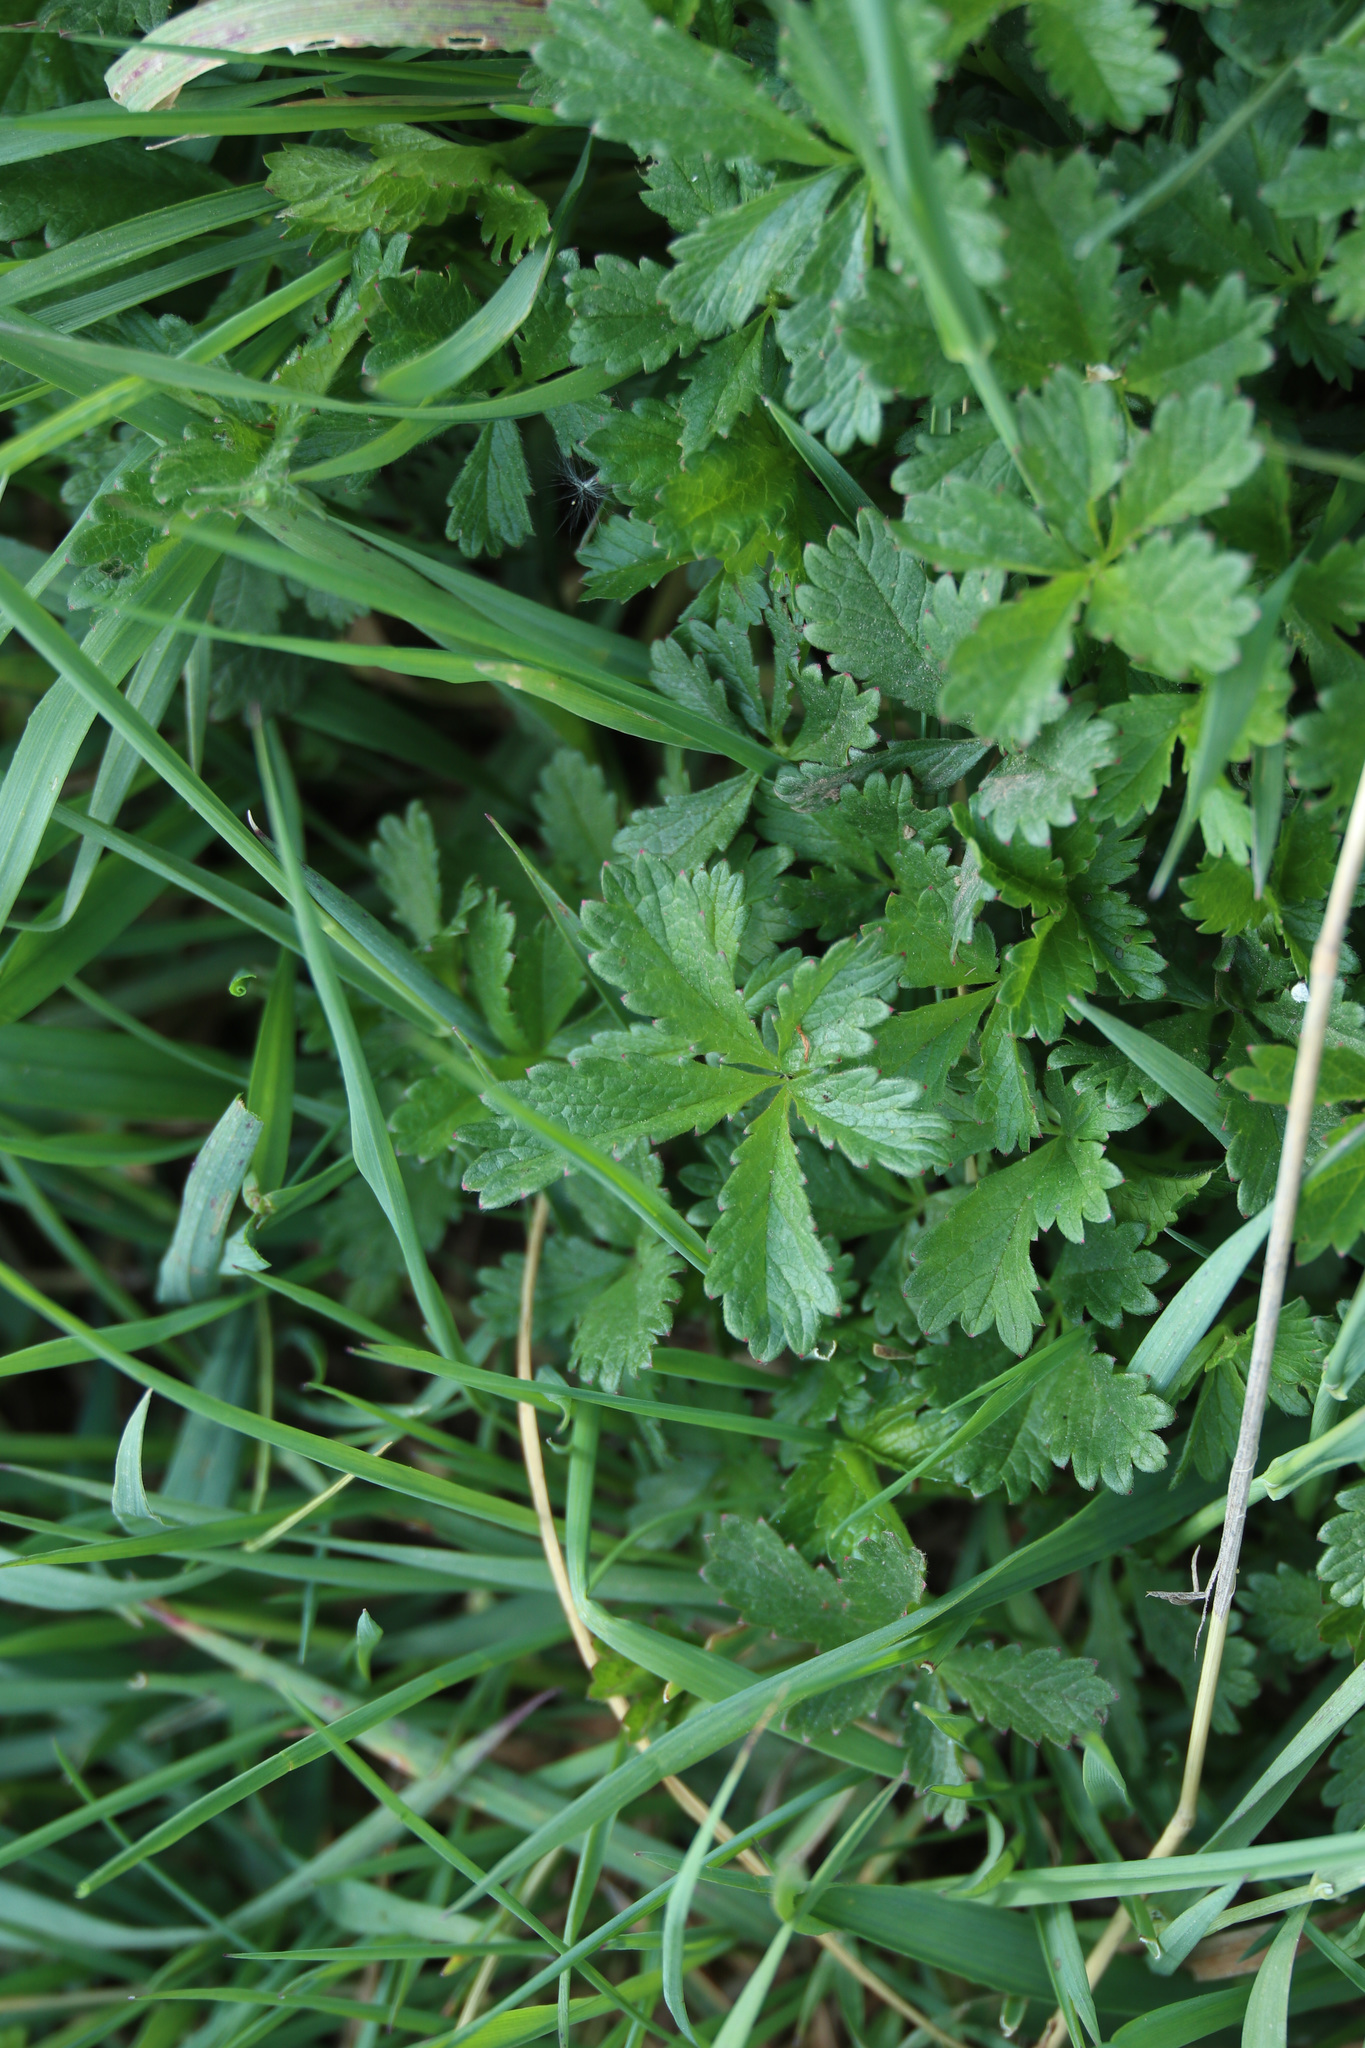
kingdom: Plantae
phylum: Tracheophyta
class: Magnoliopsida
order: Rosales
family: Rosaceae
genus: Potentilla
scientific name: Potentilla reptans
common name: Creeping cinquefoil
